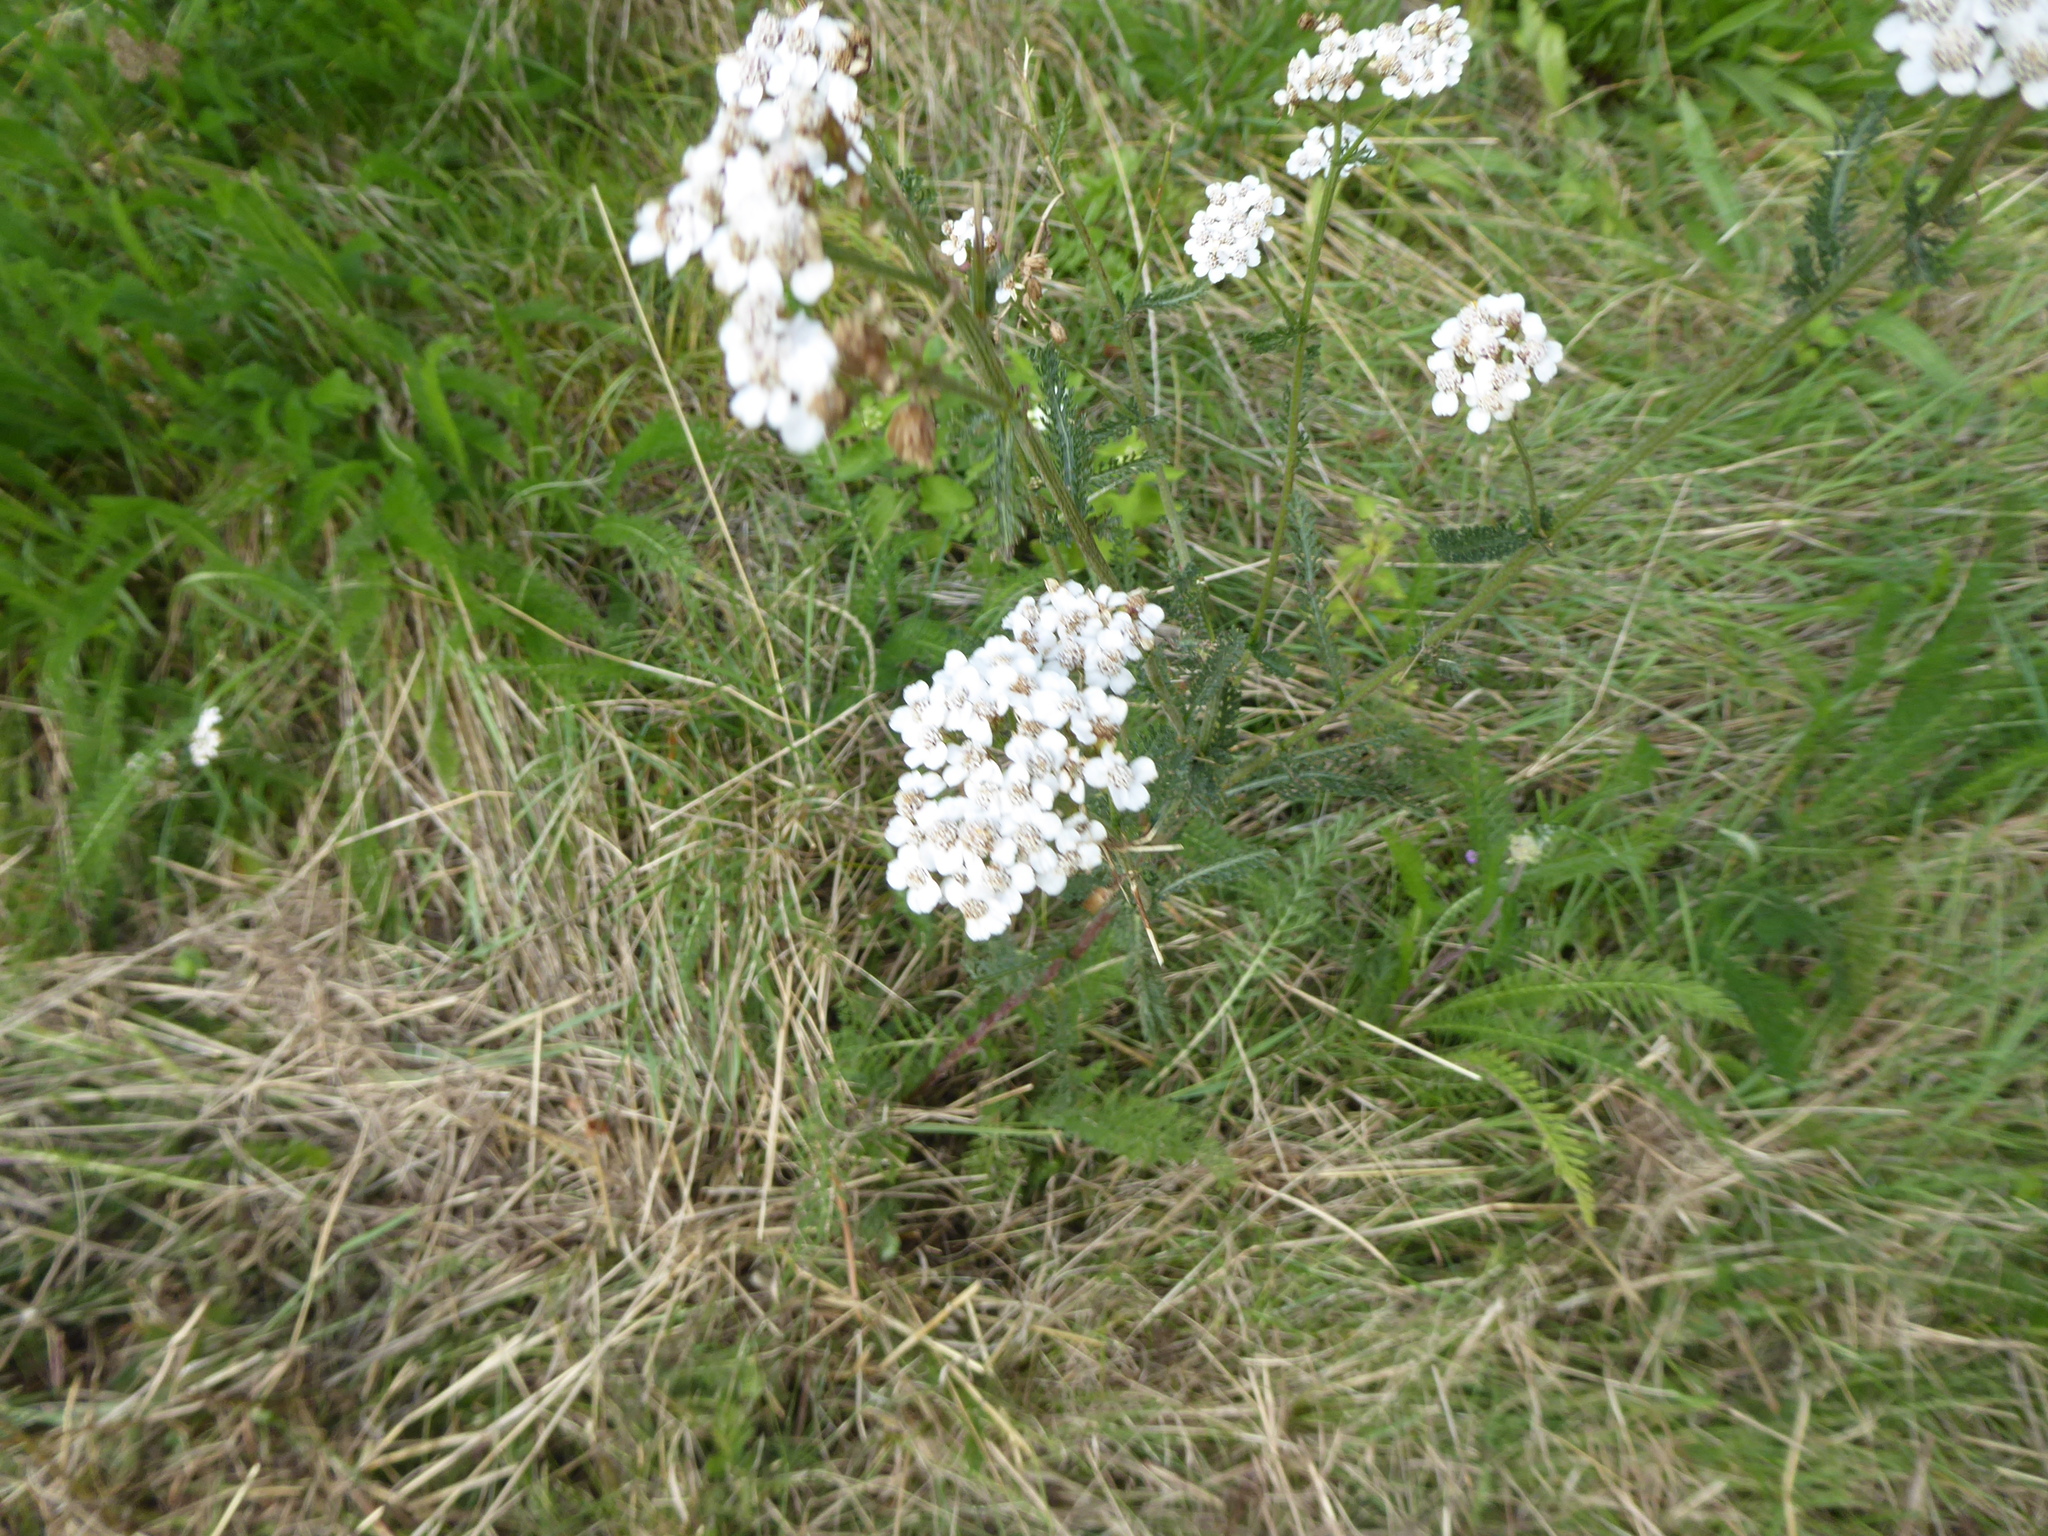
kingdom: Plantae
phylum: Tracheophyta
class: Magnoliopsida
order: Asterales
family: Asteraceae
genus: Achillea
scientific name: Achillea millefolium
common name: Yarrow
